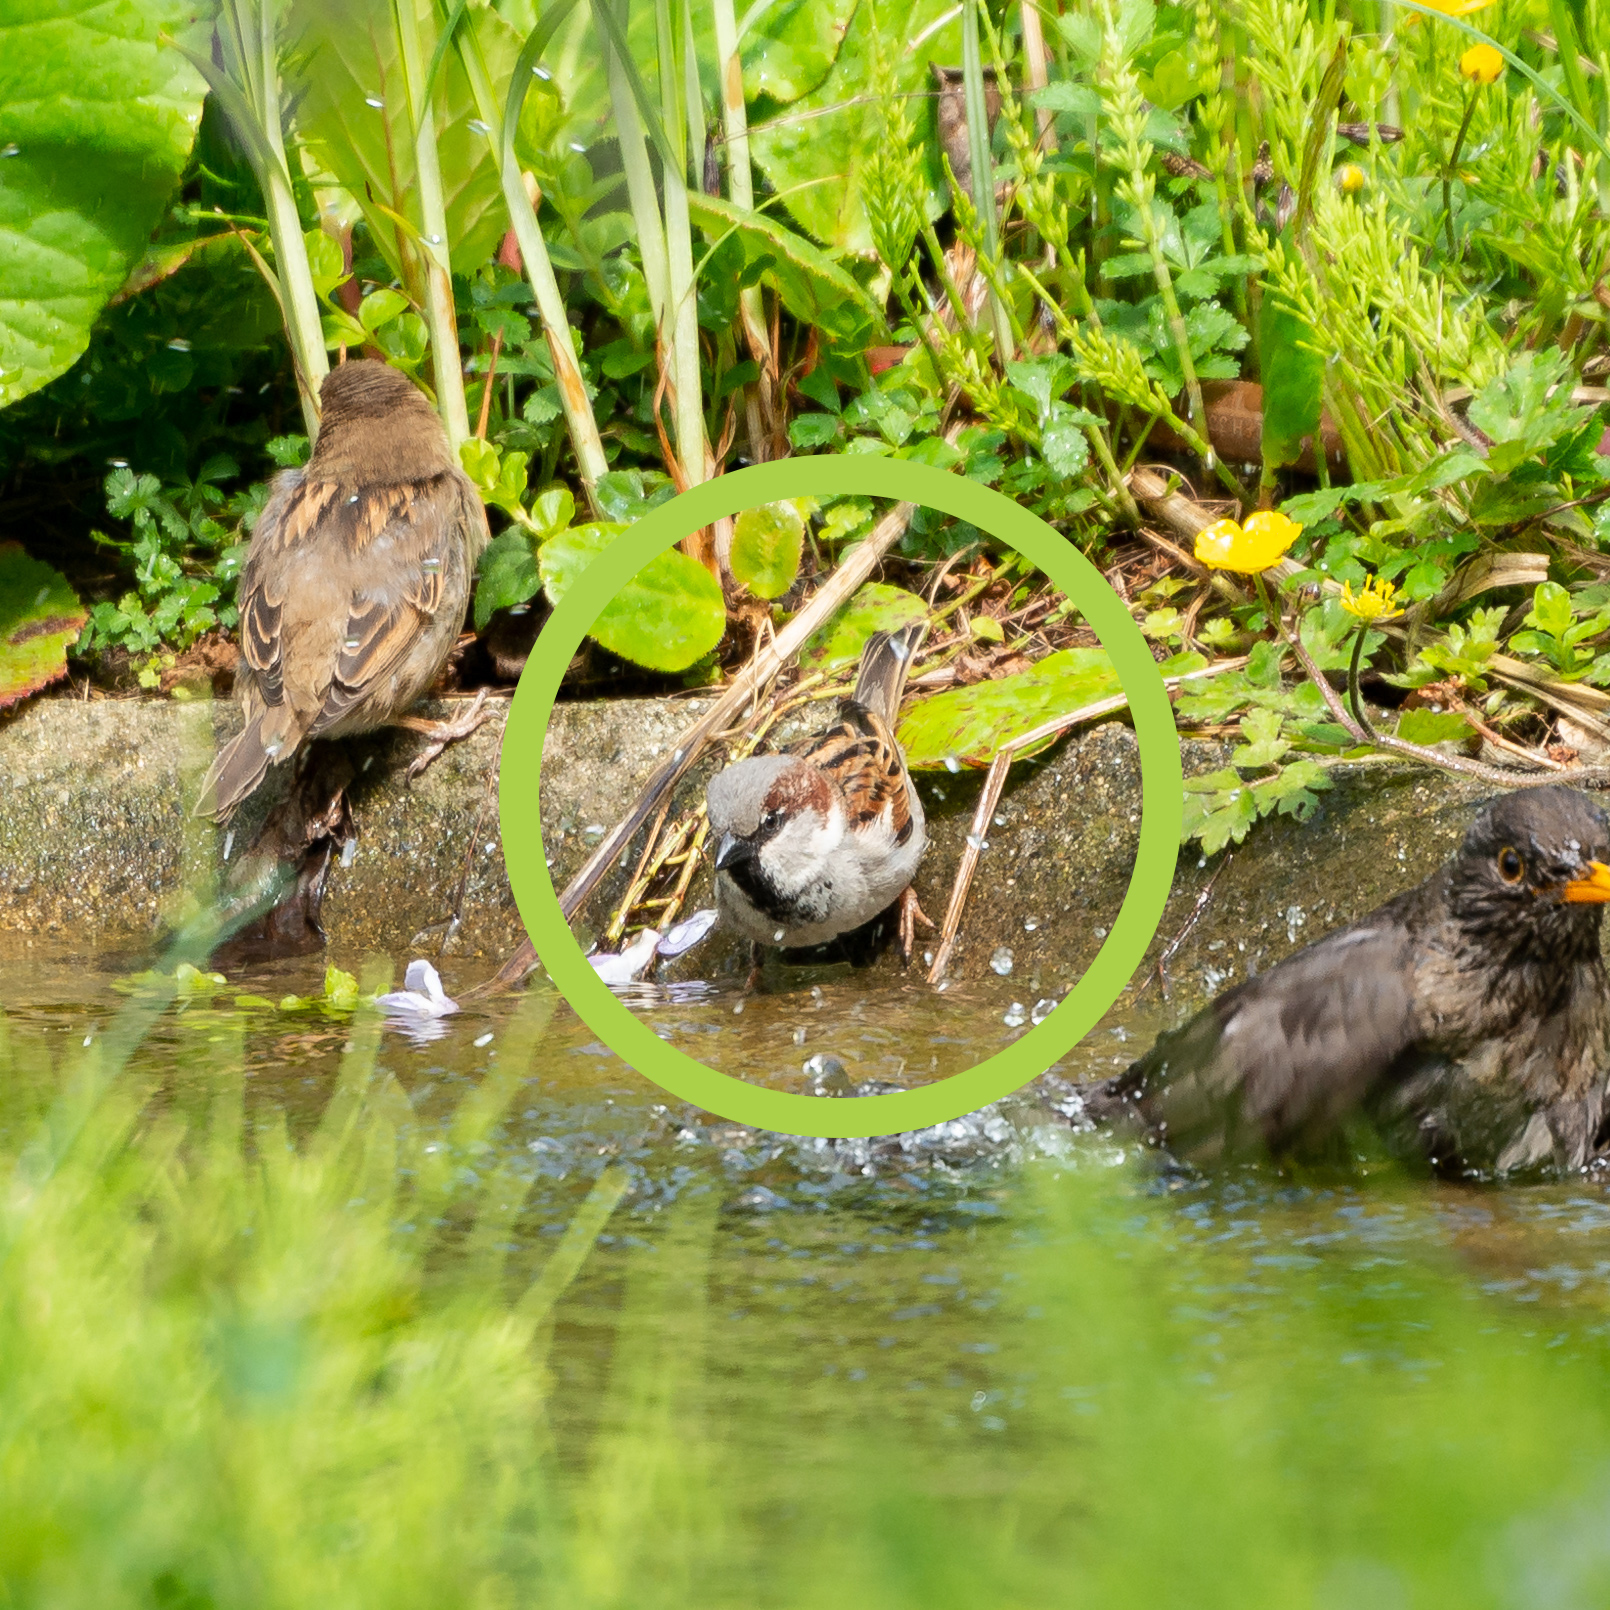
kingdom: Animalia
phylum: Chordata
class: Aves
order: Passeriformes
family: Passeridae
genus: Passer
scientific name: Passer domesticus
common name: House sparrow
